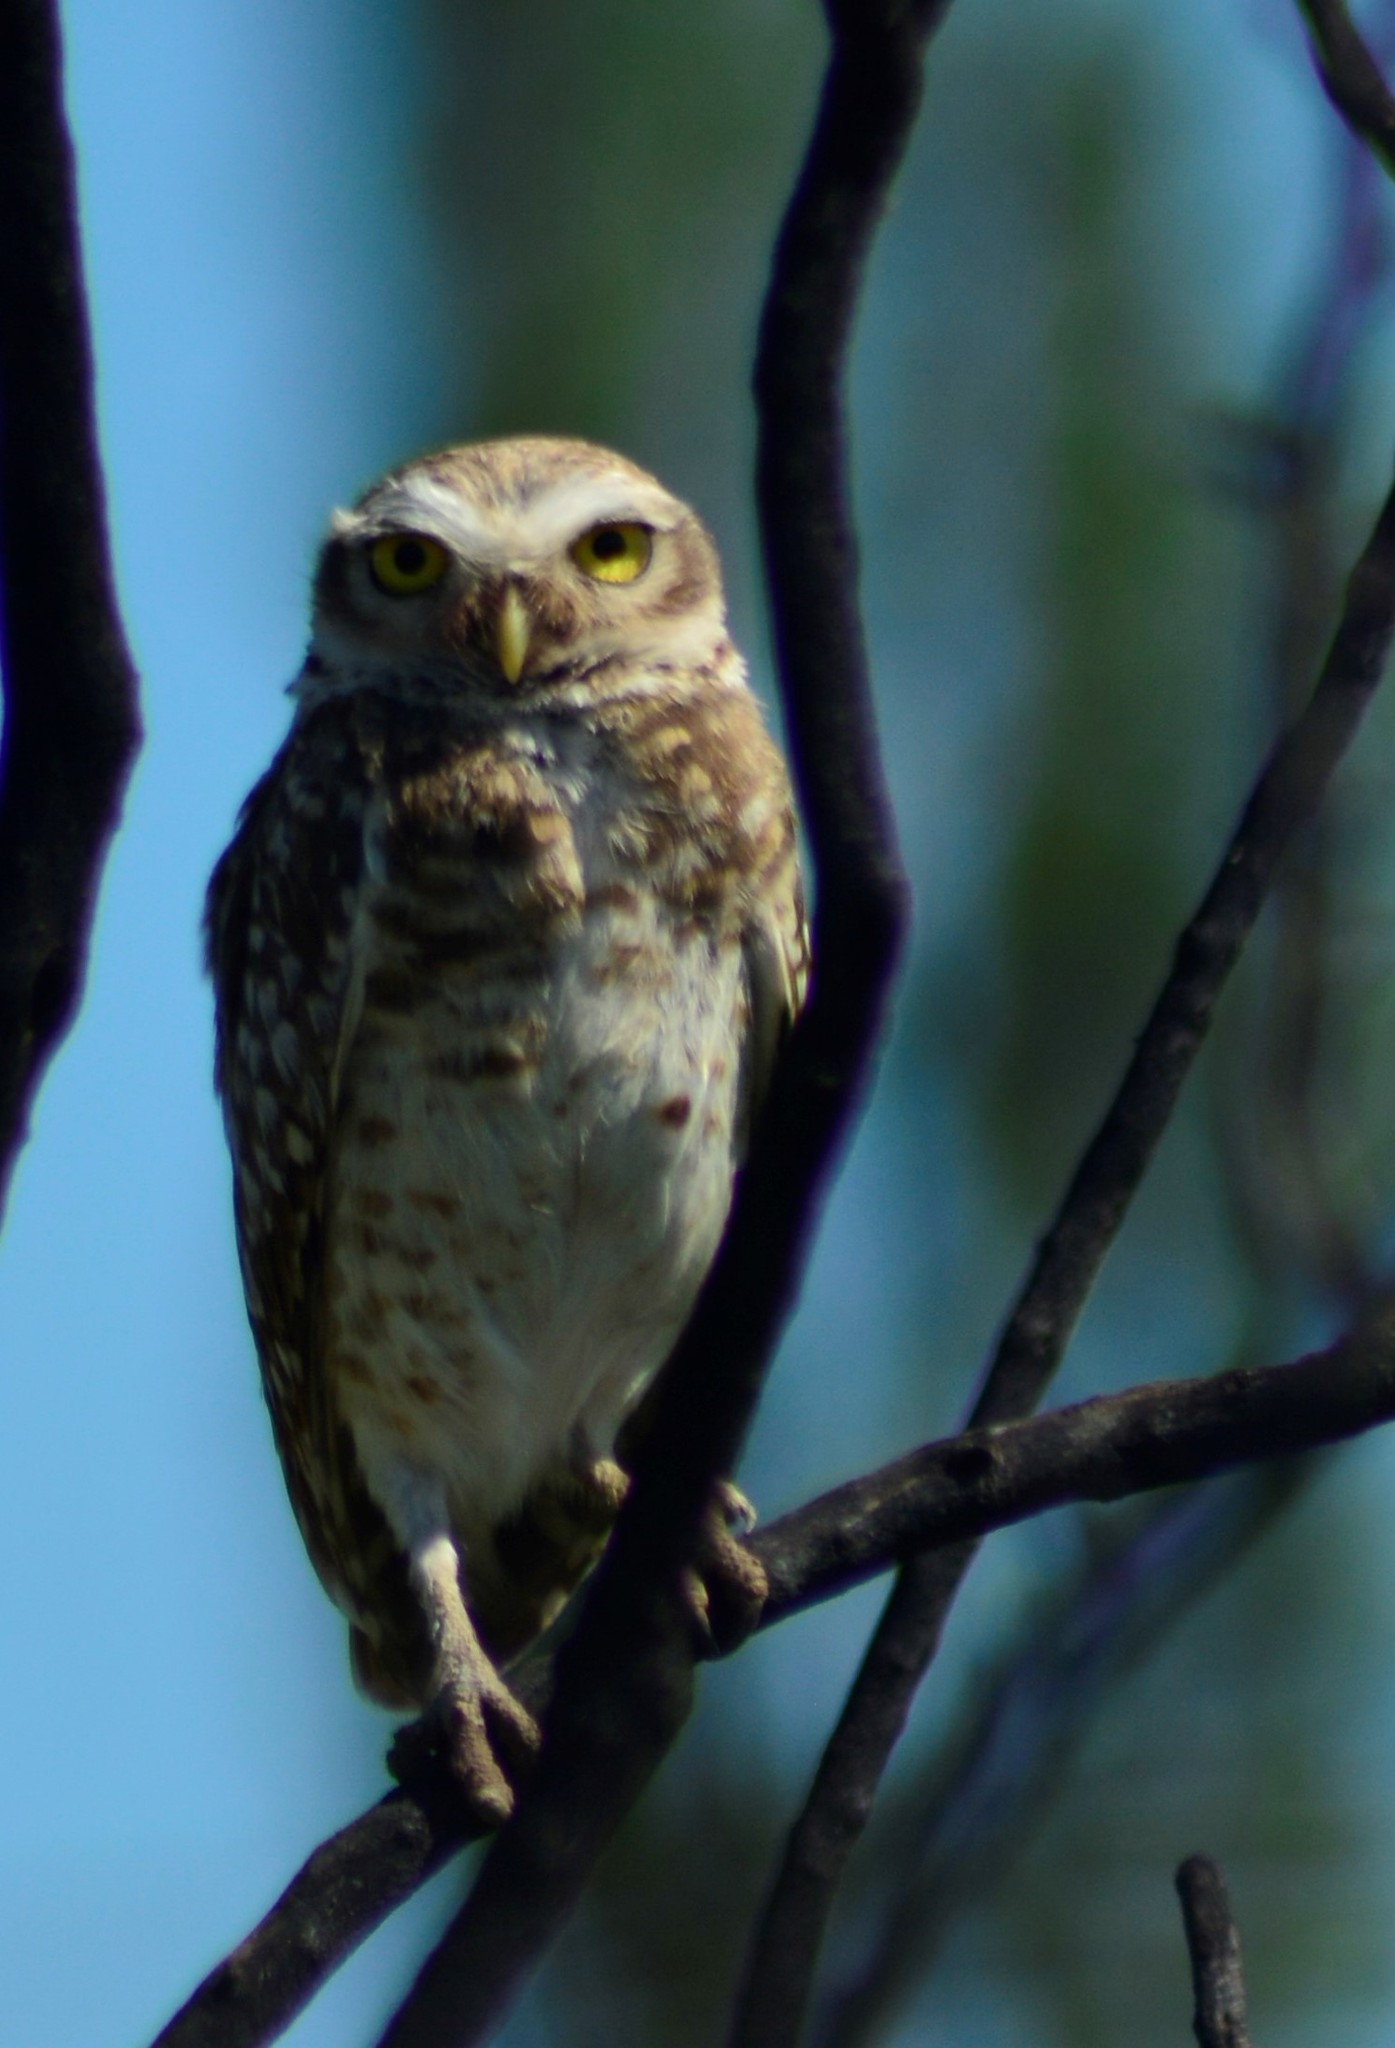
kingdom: Animalia
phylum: Chordata
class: Aves
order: Strigiformes
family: Strigidae
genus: Athene
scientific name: Athene cunicularia
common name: Burrowing owl
